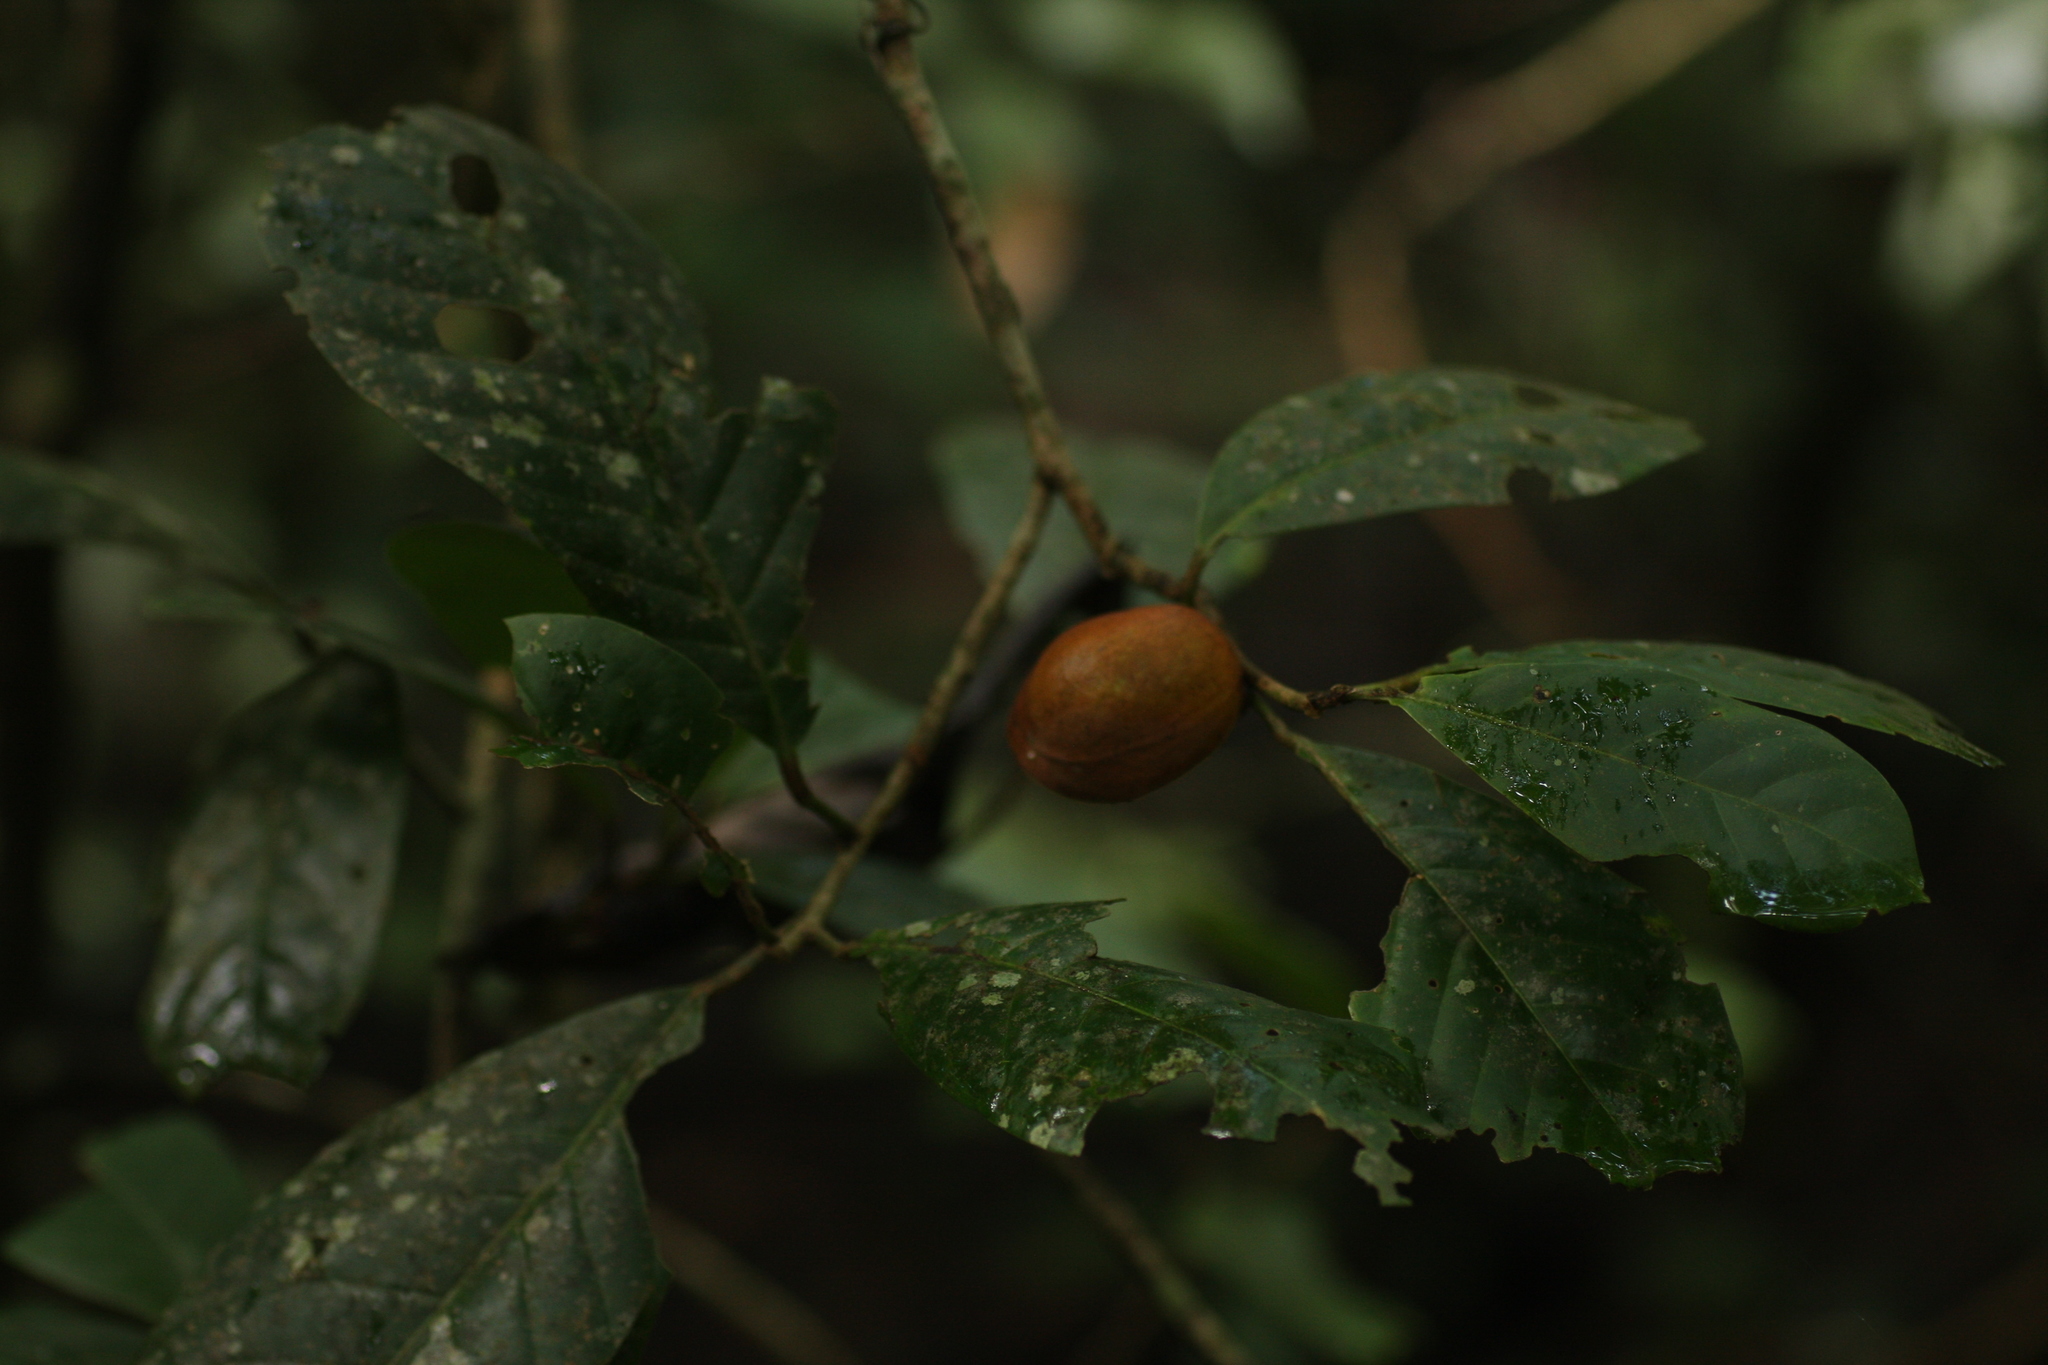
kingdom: Plantae
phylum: Tracheophyta
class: Magnoliopsida
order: Sapindales
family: Meliaceae
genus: Aglaia
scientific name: Aglaia simplicifolia
